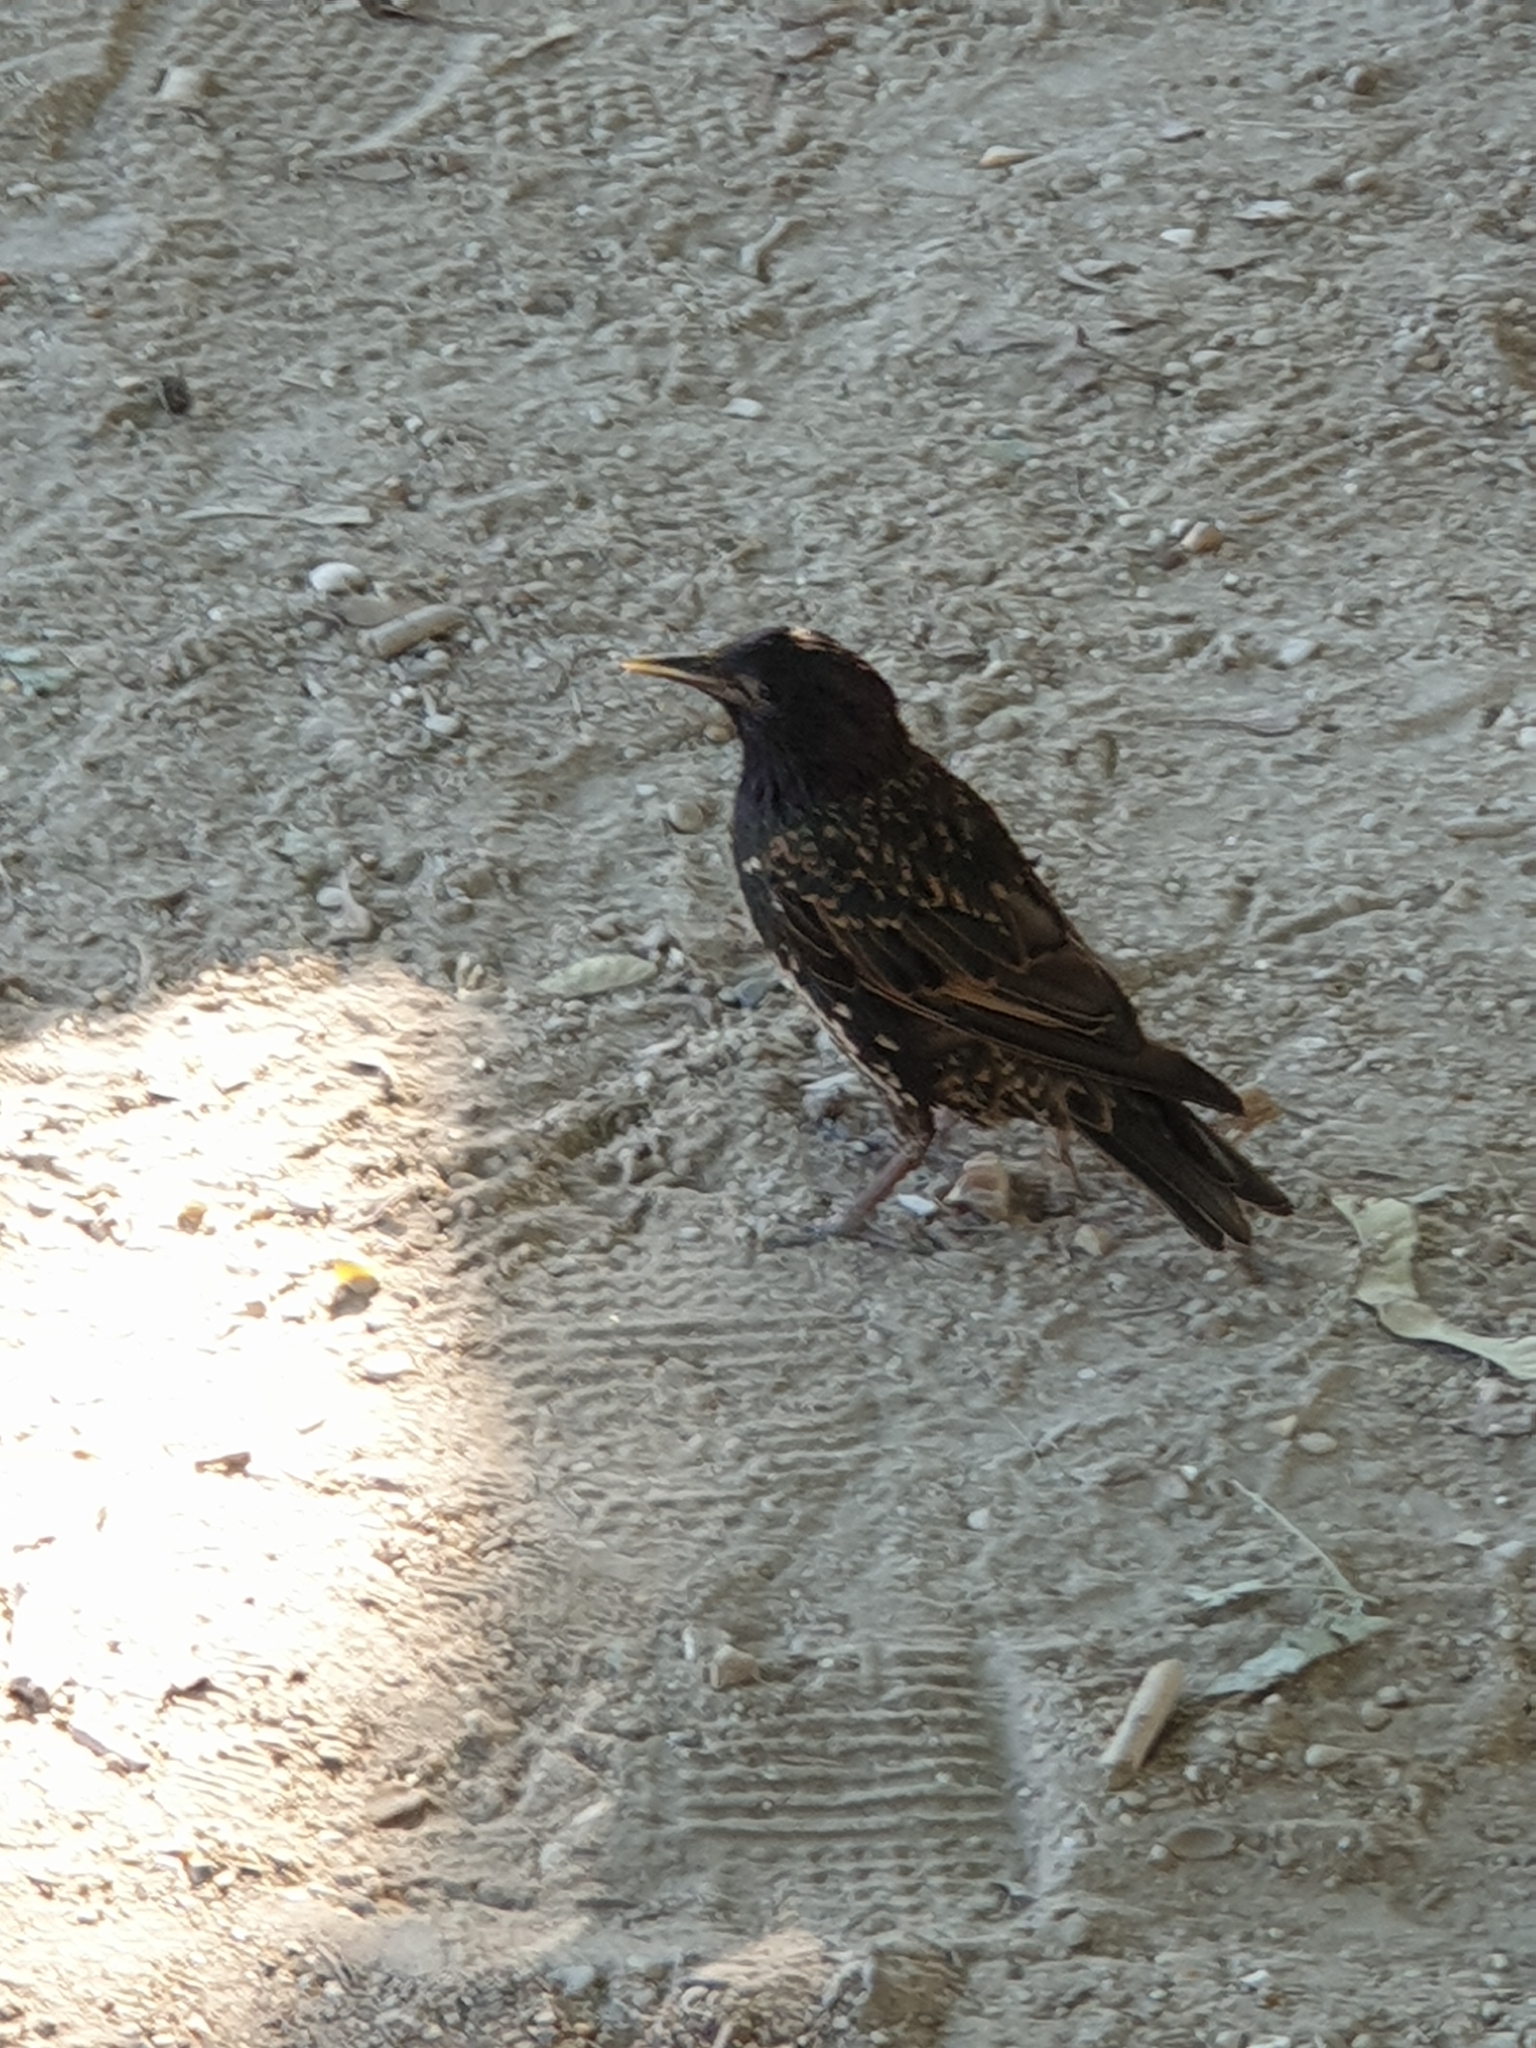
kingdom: Animalia
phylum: Chordata
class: Aves
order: Passeriformes
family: Sturnidae
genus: Sturnus
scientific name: Sturnus vulgaris
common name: Common starling
